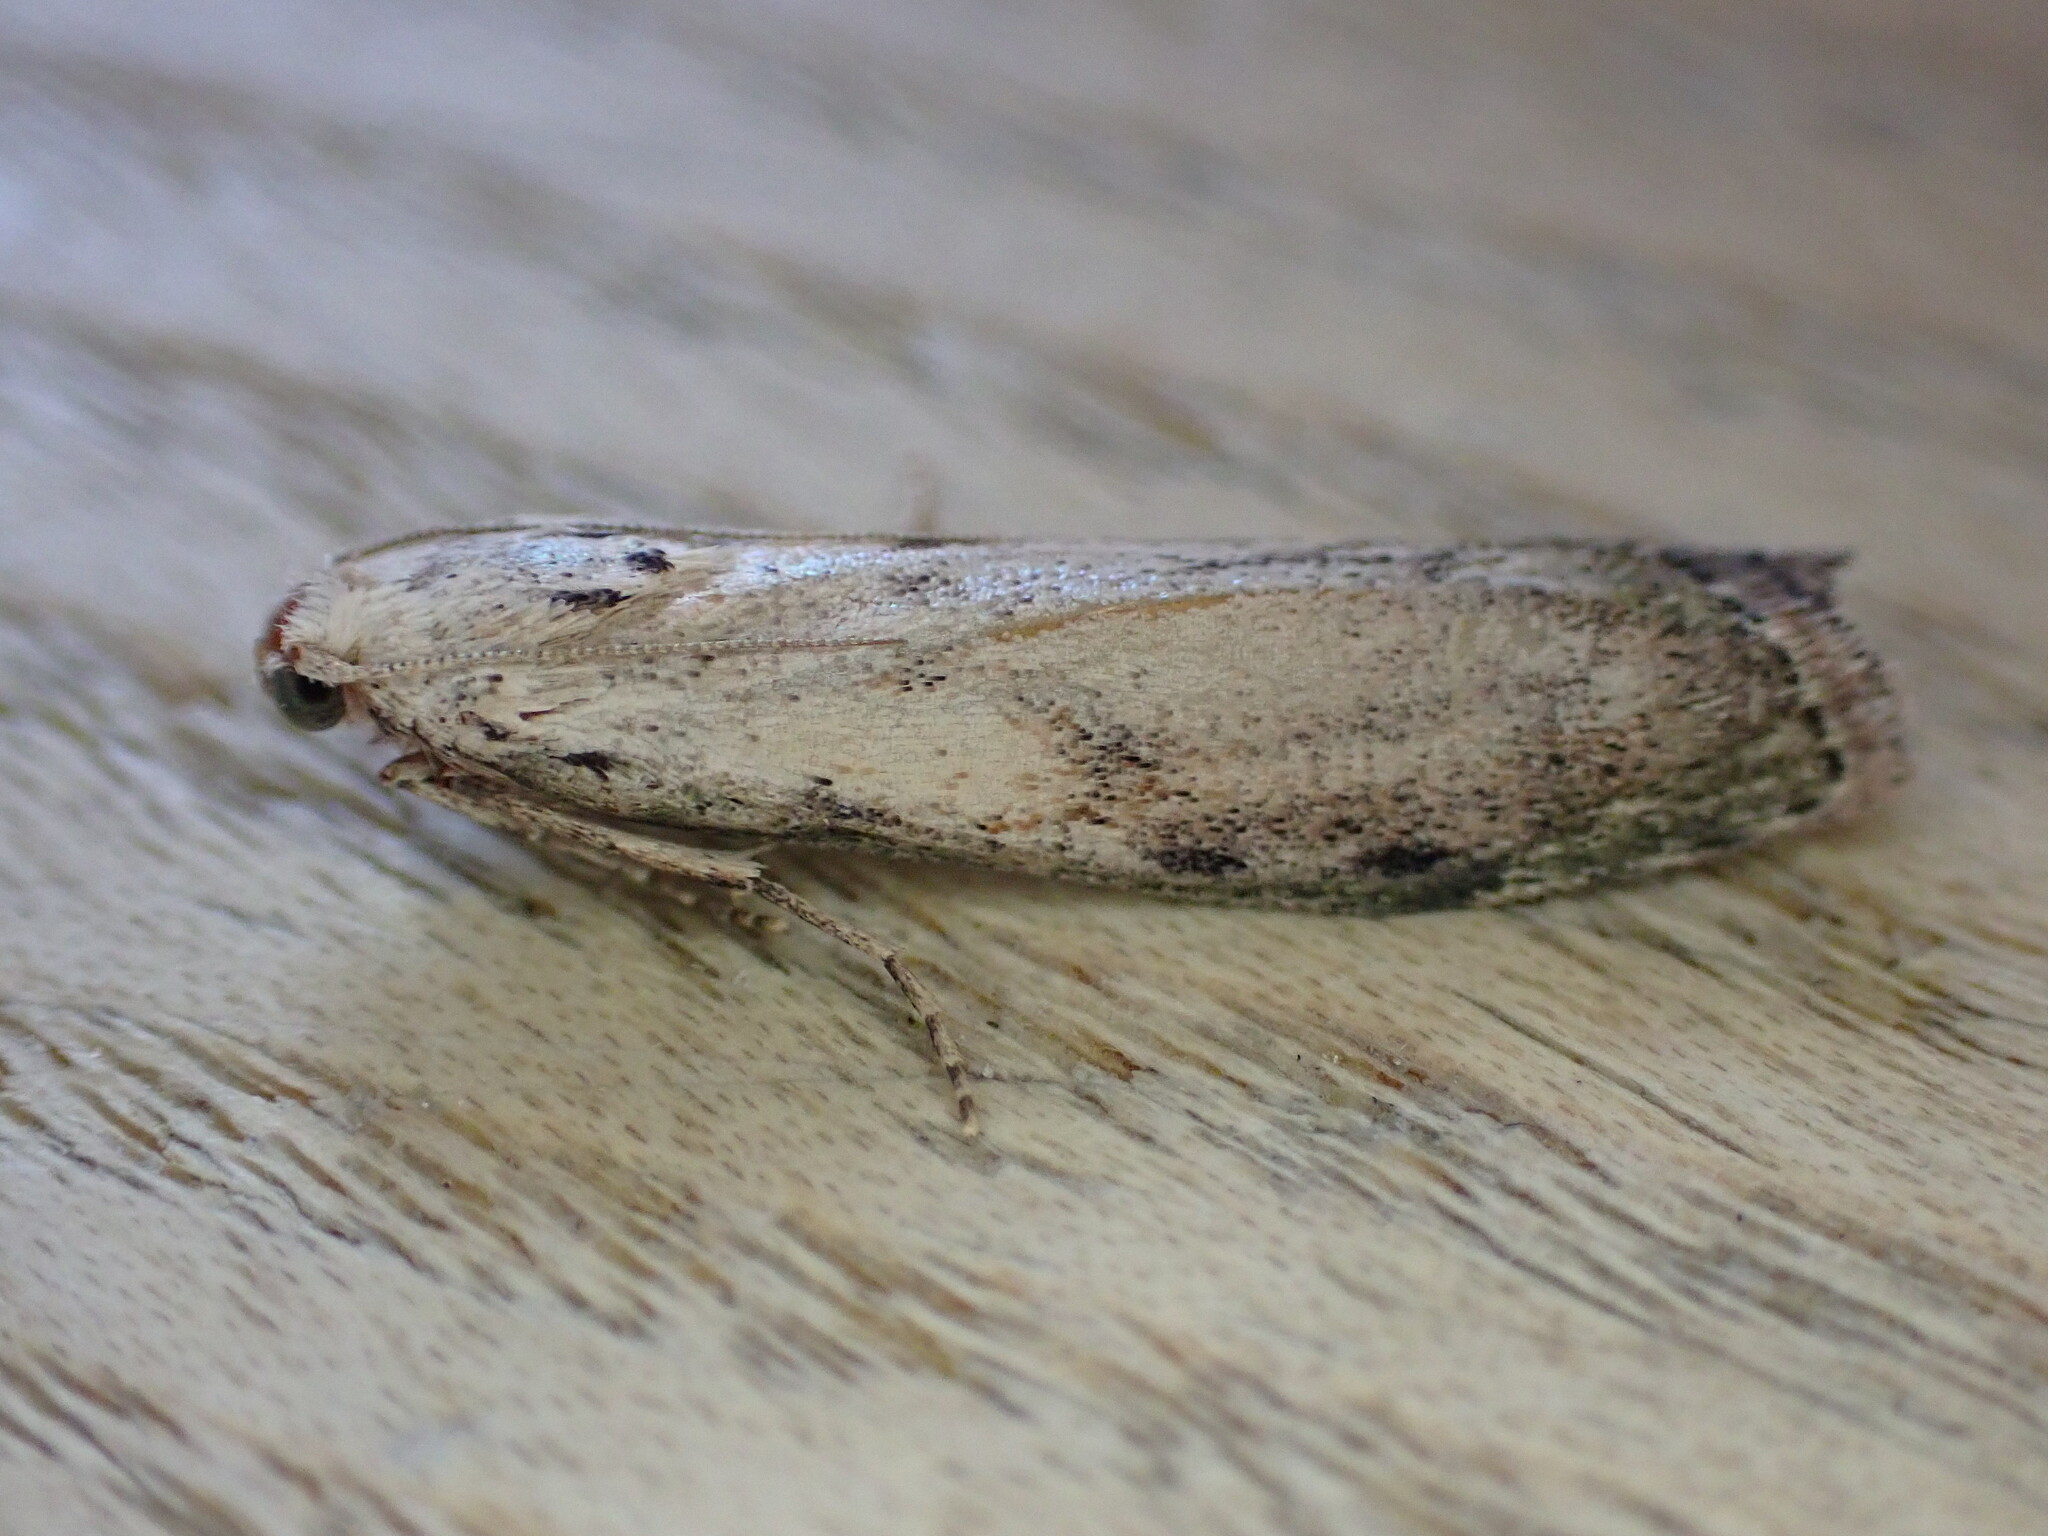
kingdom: Animalia
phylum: Arthropoda
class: Insecta
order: Lepidoptera
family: Pyralidae
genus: Aphomia
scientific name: Aphomia sociella
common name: Bee moth
